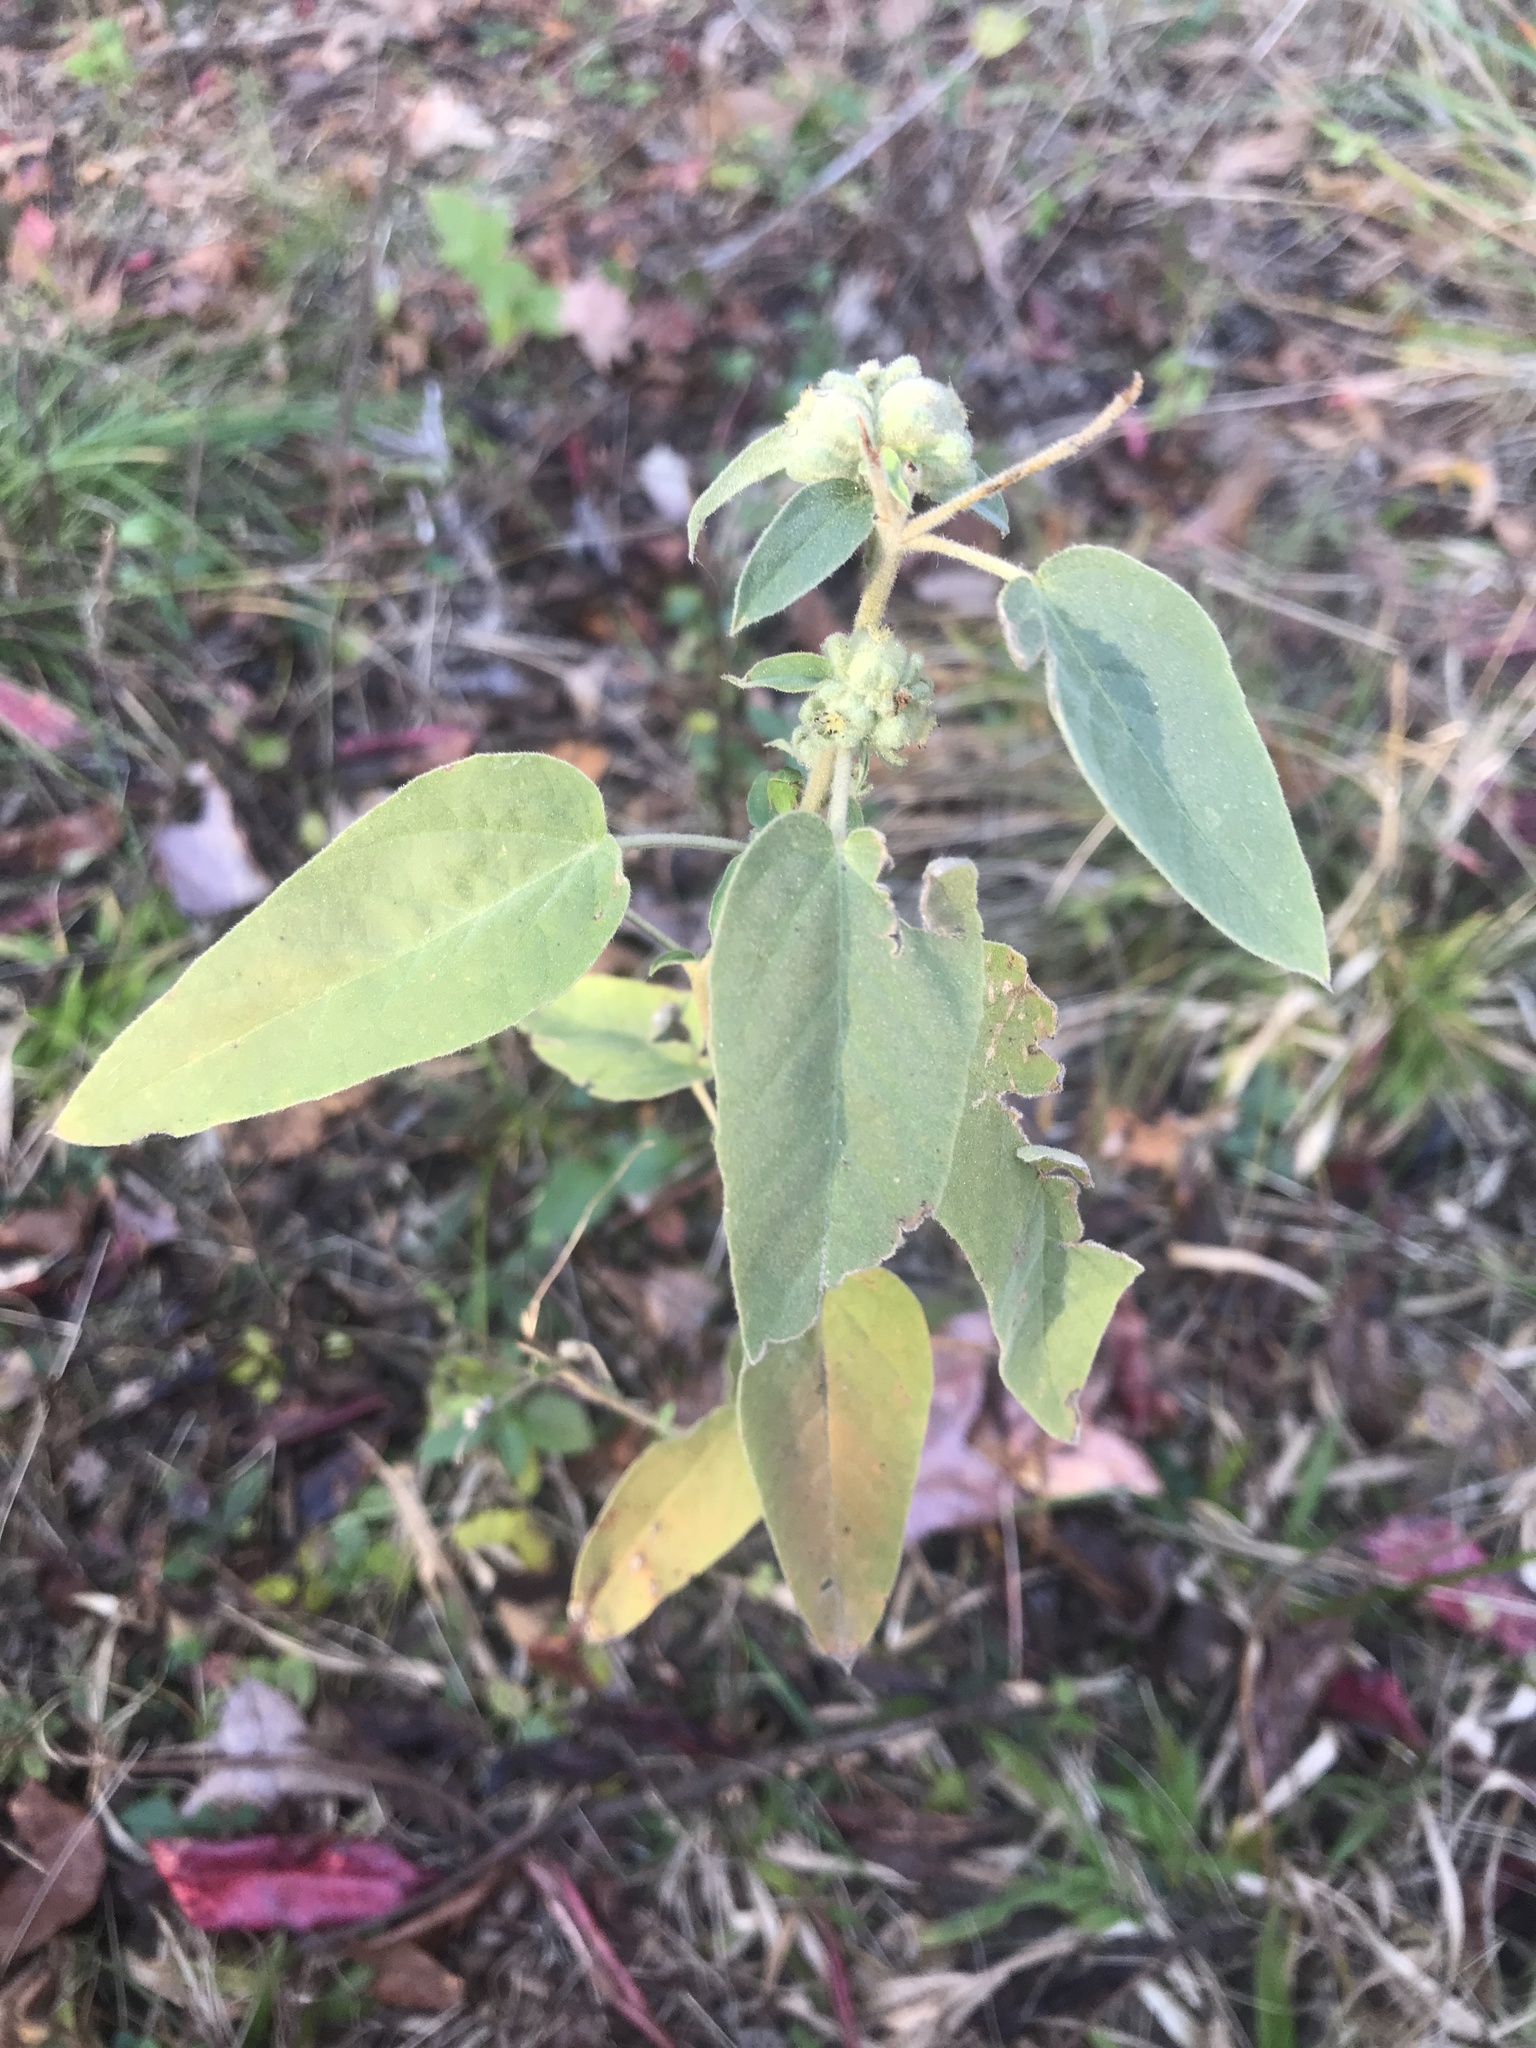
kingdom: Plantae
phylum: Tracheophyta
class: Magnoliopsida
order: Malpighiales
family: Euphorbiaceae
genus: Croton
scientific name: Croton lindheimeri
